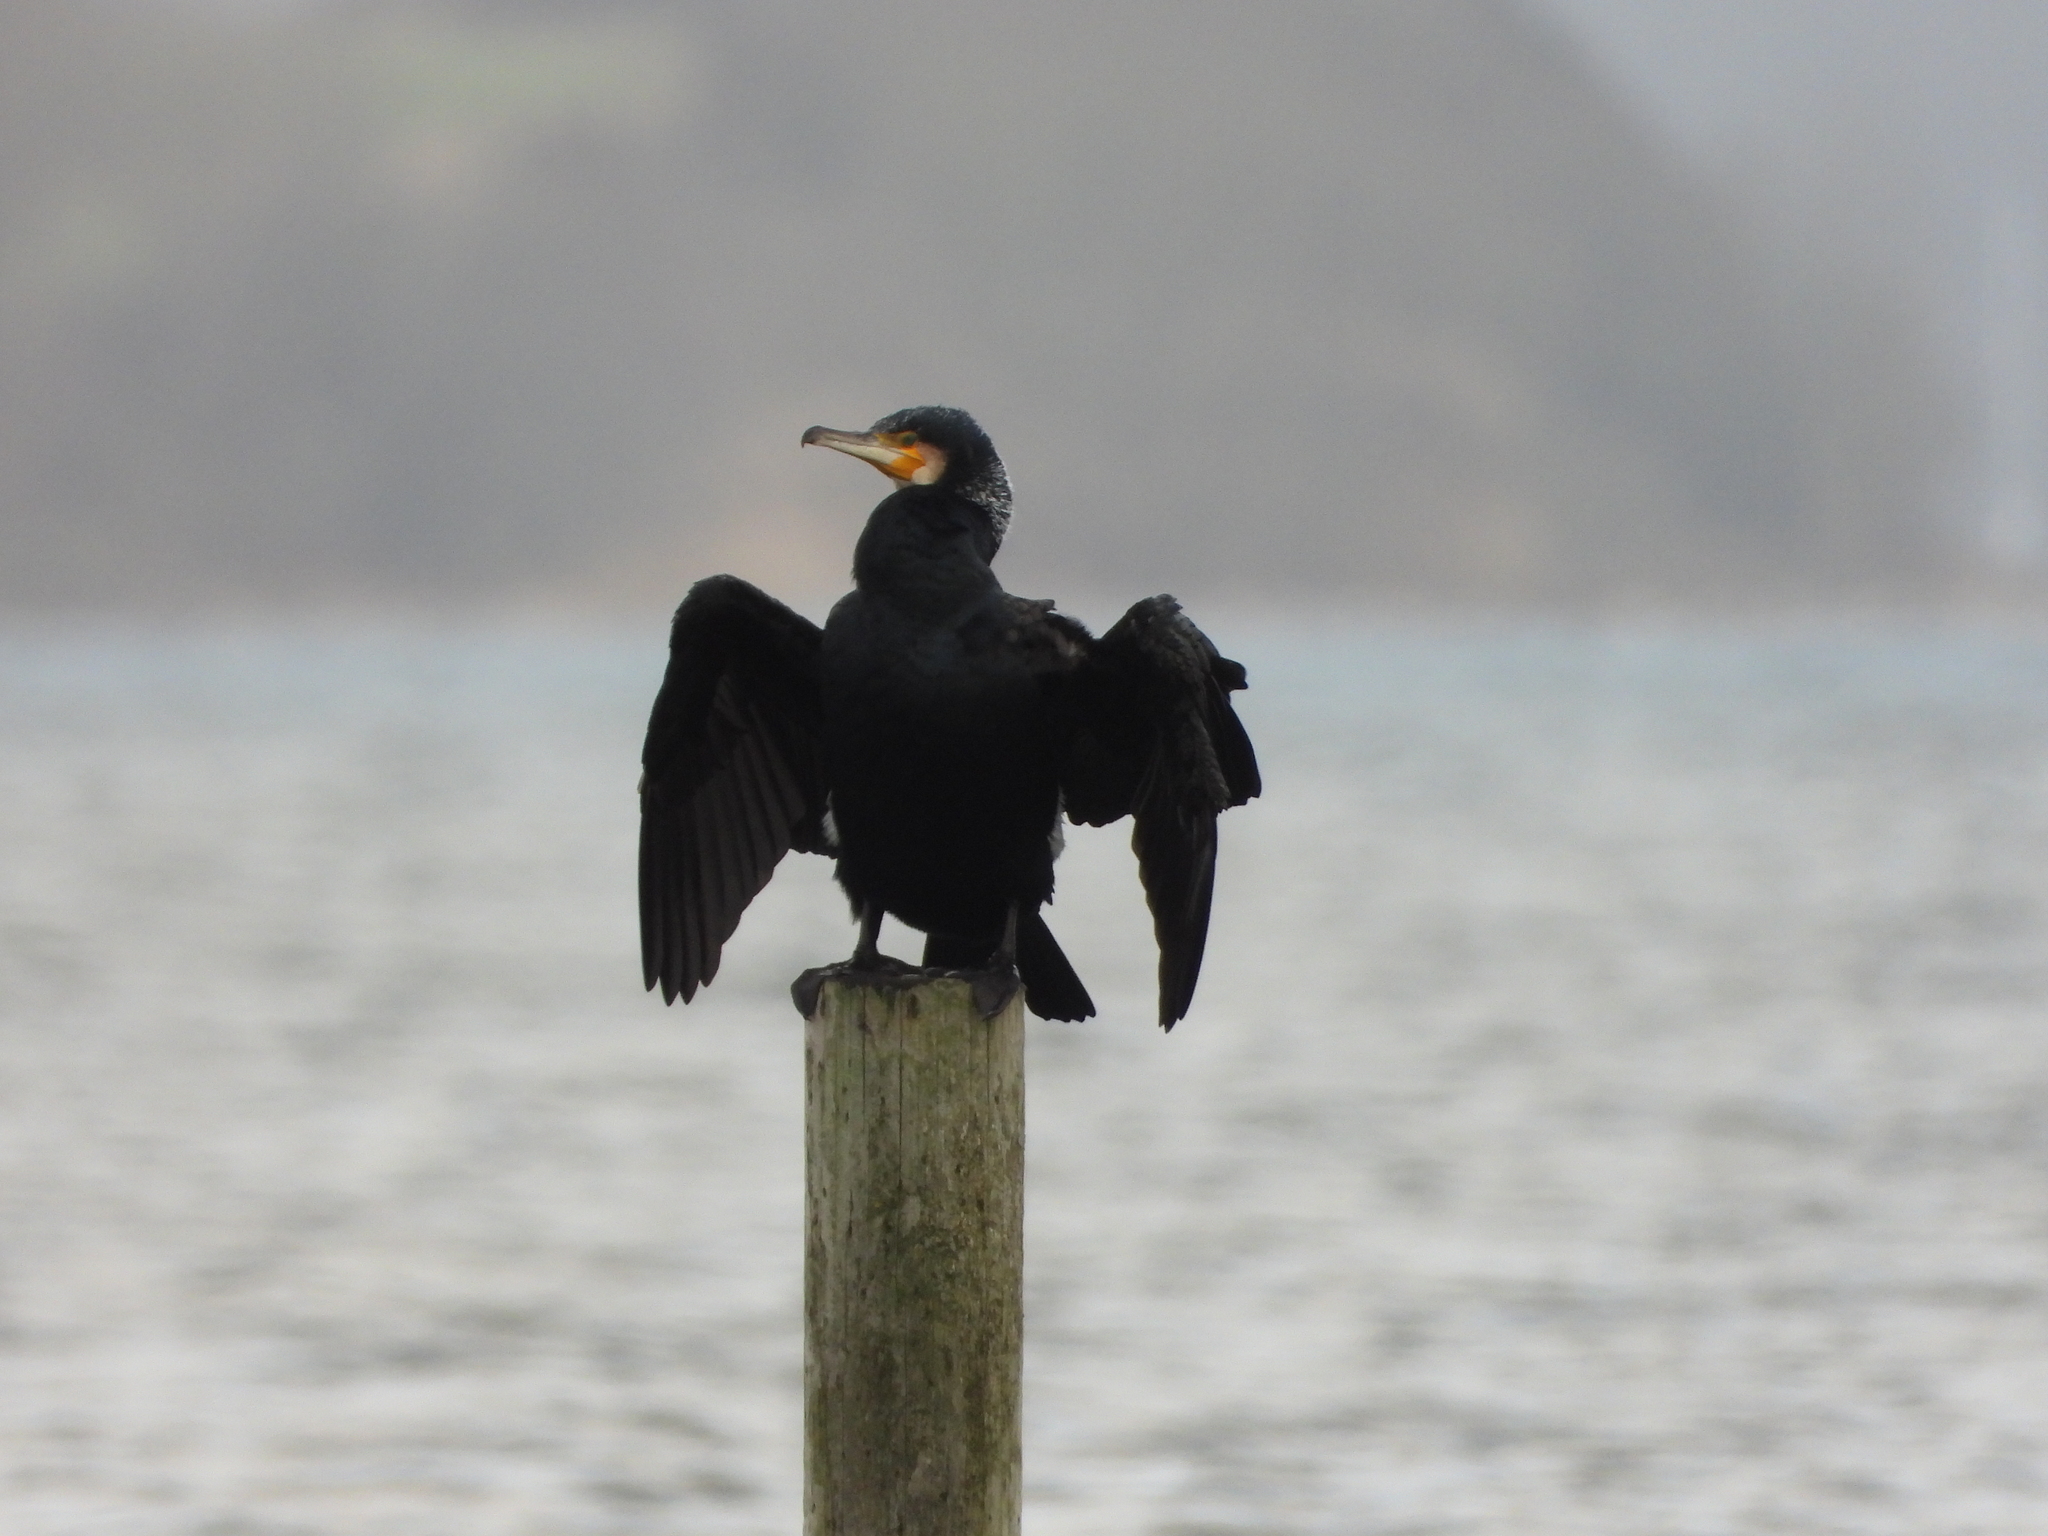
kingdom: Animalia
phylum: Chordata
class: Aves
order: Suliformes
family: Phalacrocoracidae
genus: Phalacrocorax
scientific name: Phalacrocorax carbo
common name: Great cormorant
